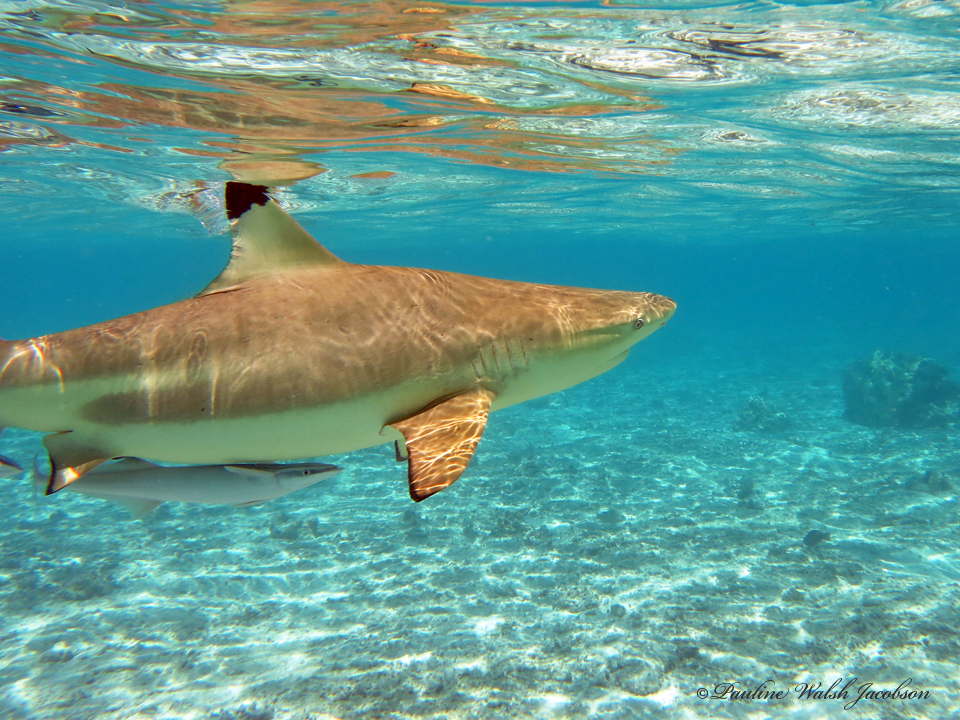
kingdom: Animalia
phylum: Chordata
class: Elasmobranchii
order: Carcharhiniformes
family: Carcharhinidae
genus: Carcharhinus
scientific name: Carcharhinus melanopterus
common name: Blacktip reef shark
